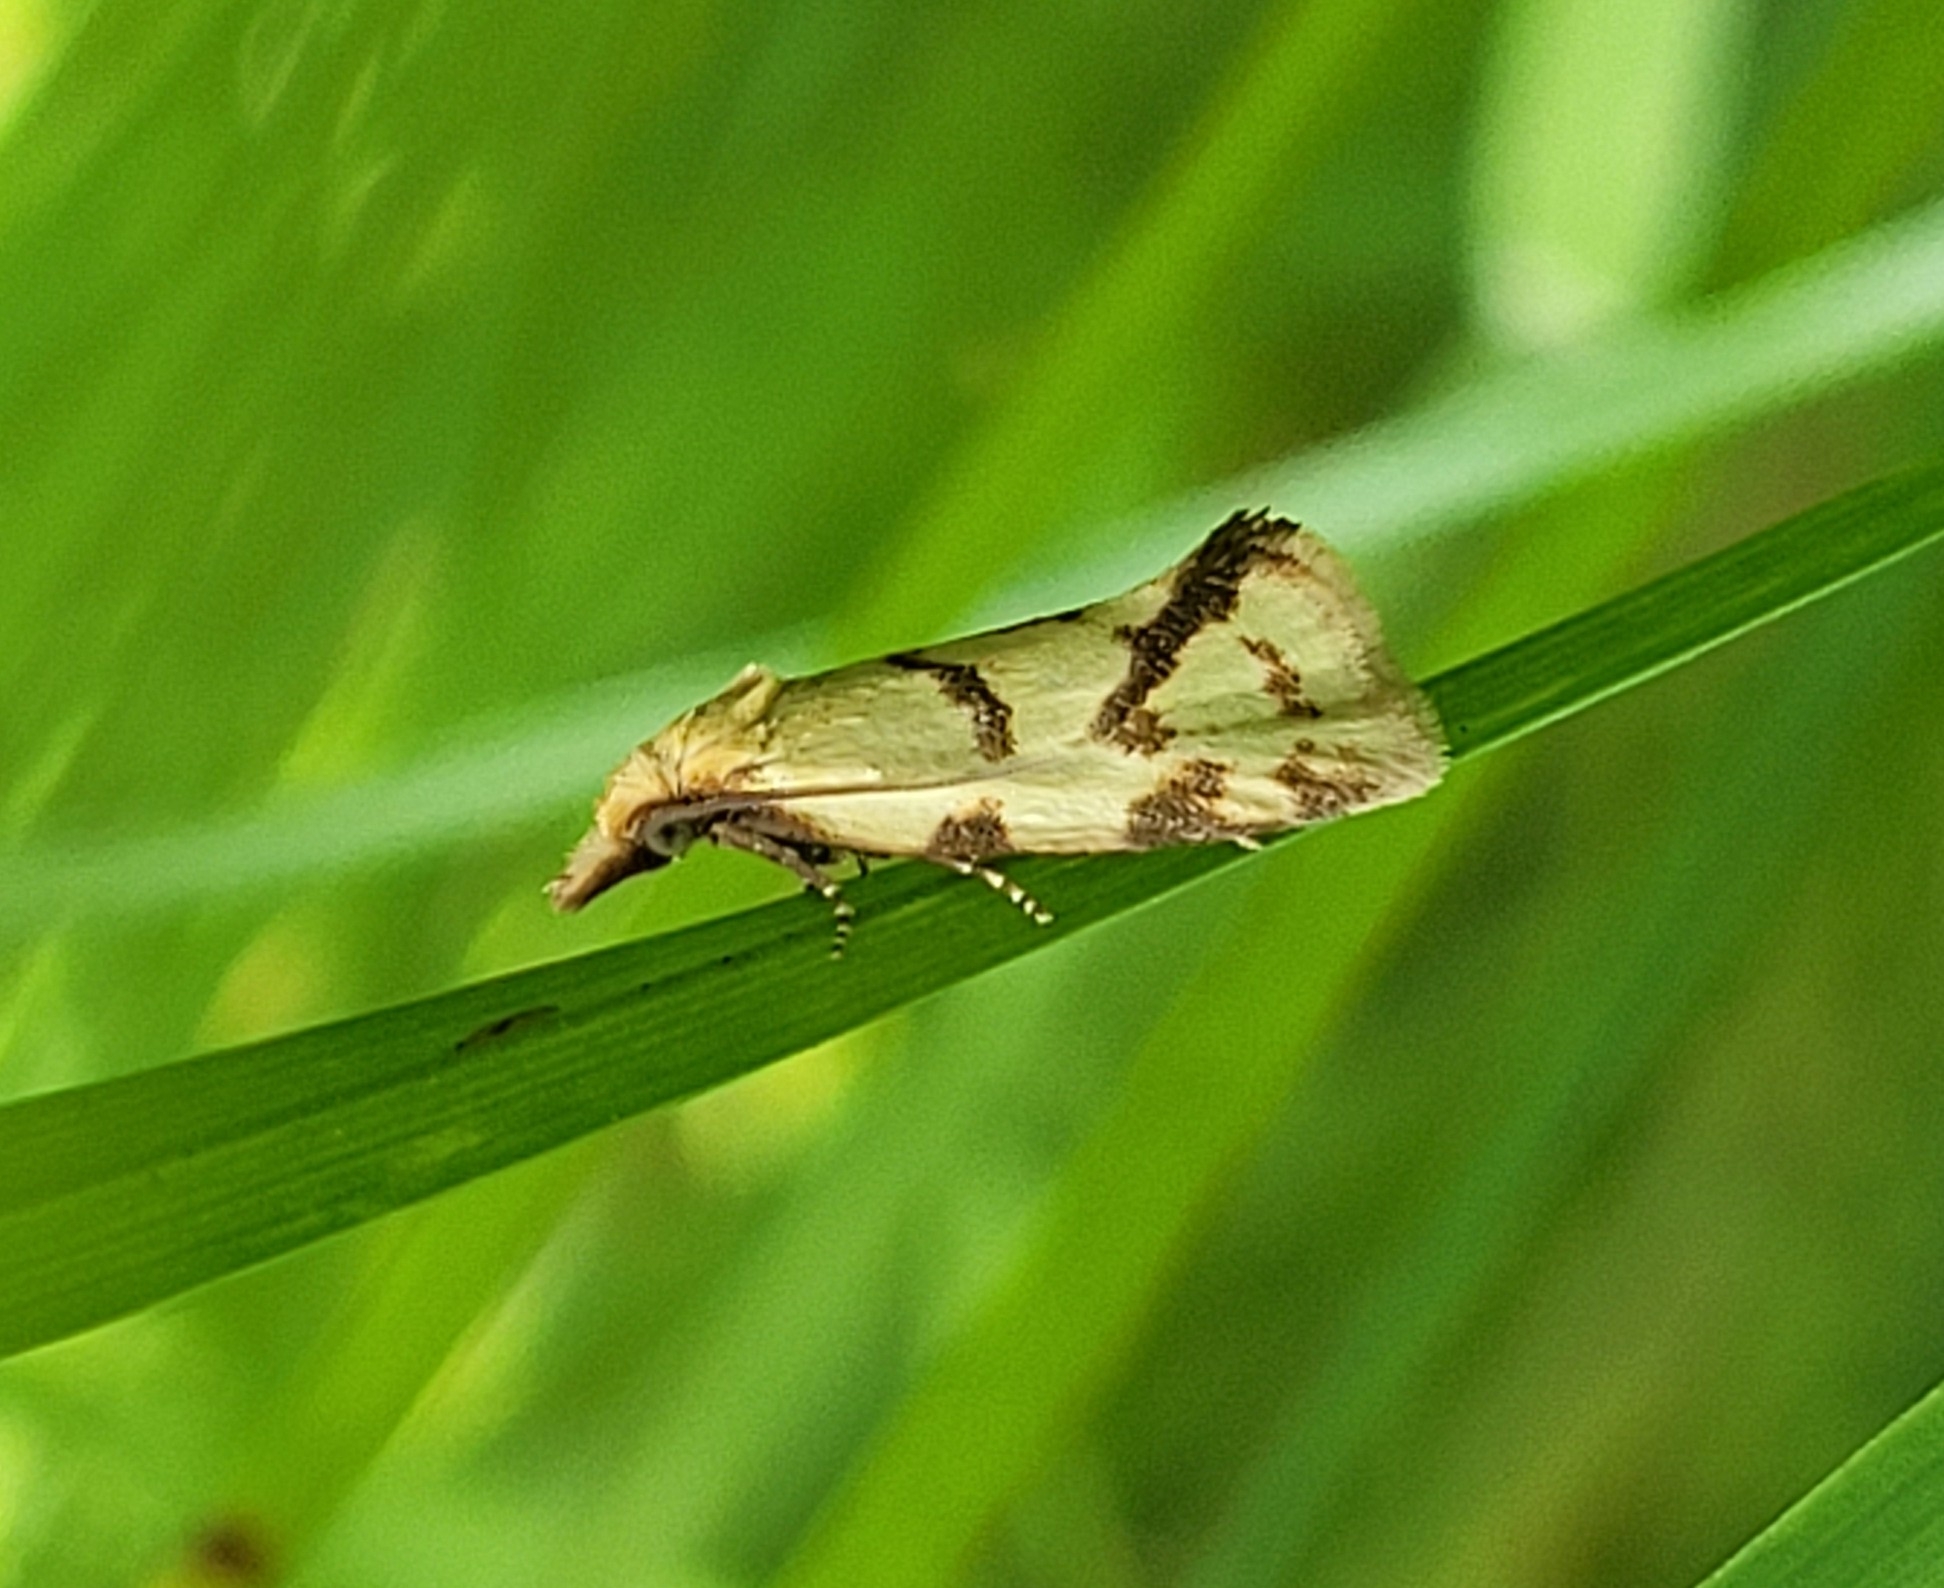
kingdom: Animalia
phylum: Arthropoda
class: Insecta
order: Lepidoptera
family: Tortricidae
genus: Agapeta
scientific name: Agapeta hamana
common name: Common yellow conch
